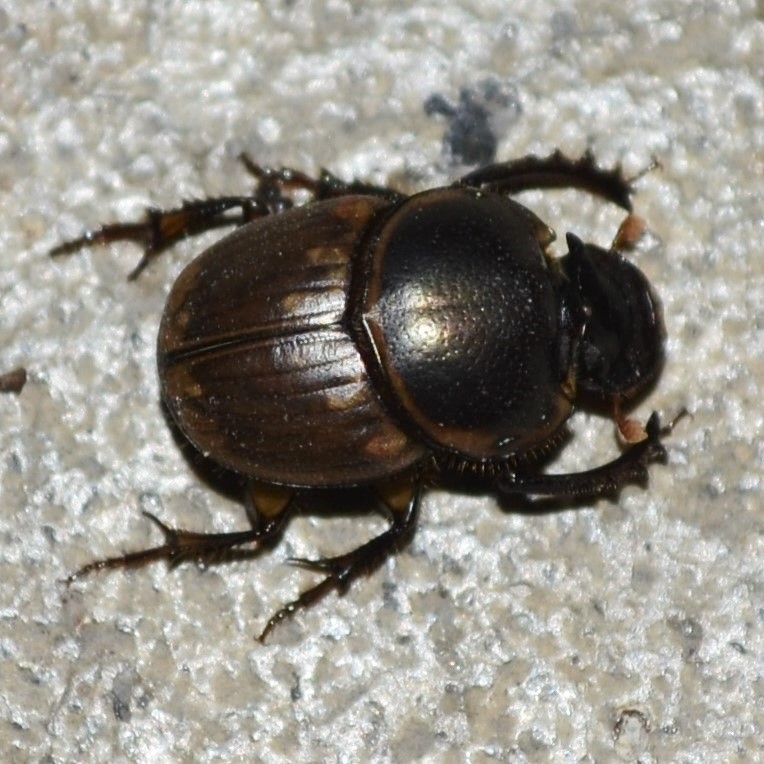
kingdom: Animalia
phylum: Arthropoda
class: Insecta
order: Coleoptera
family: Scarabaeidae
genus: Digitonthophagus
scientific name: Digitonthophagus gazella
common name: Brown dung beetle
